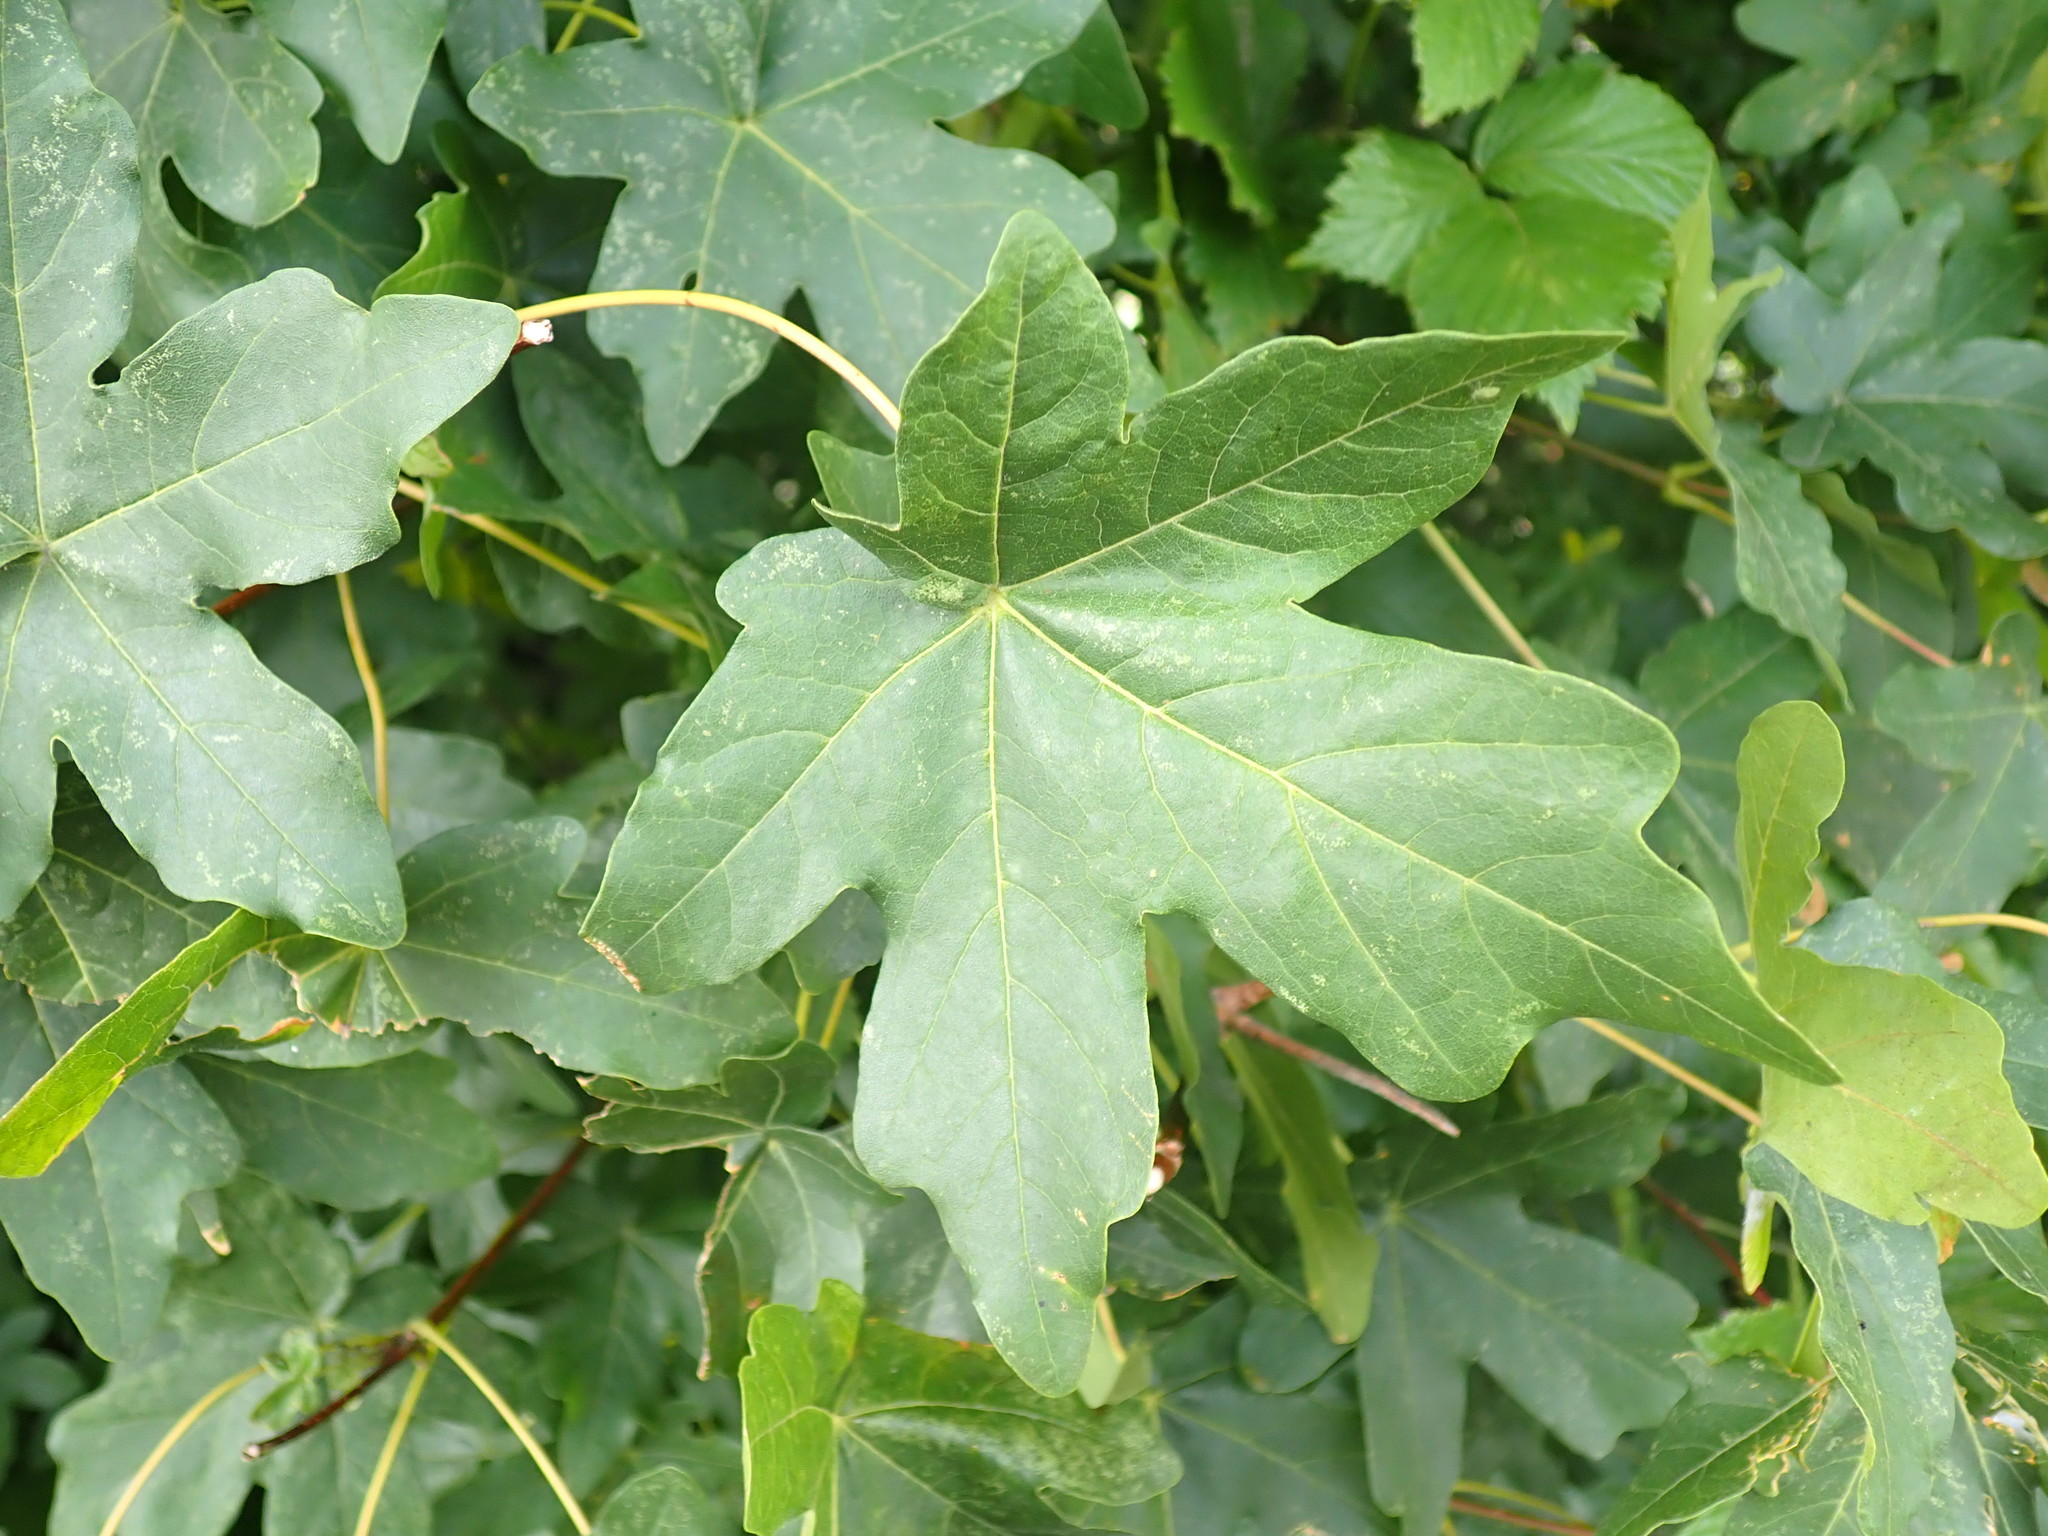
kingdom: Plantae
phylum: Tracheophyta
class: Magnoliopsida
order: Sapindales
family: Sapindaceae
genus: Acer
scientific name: Acer campestre
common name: Field maple
